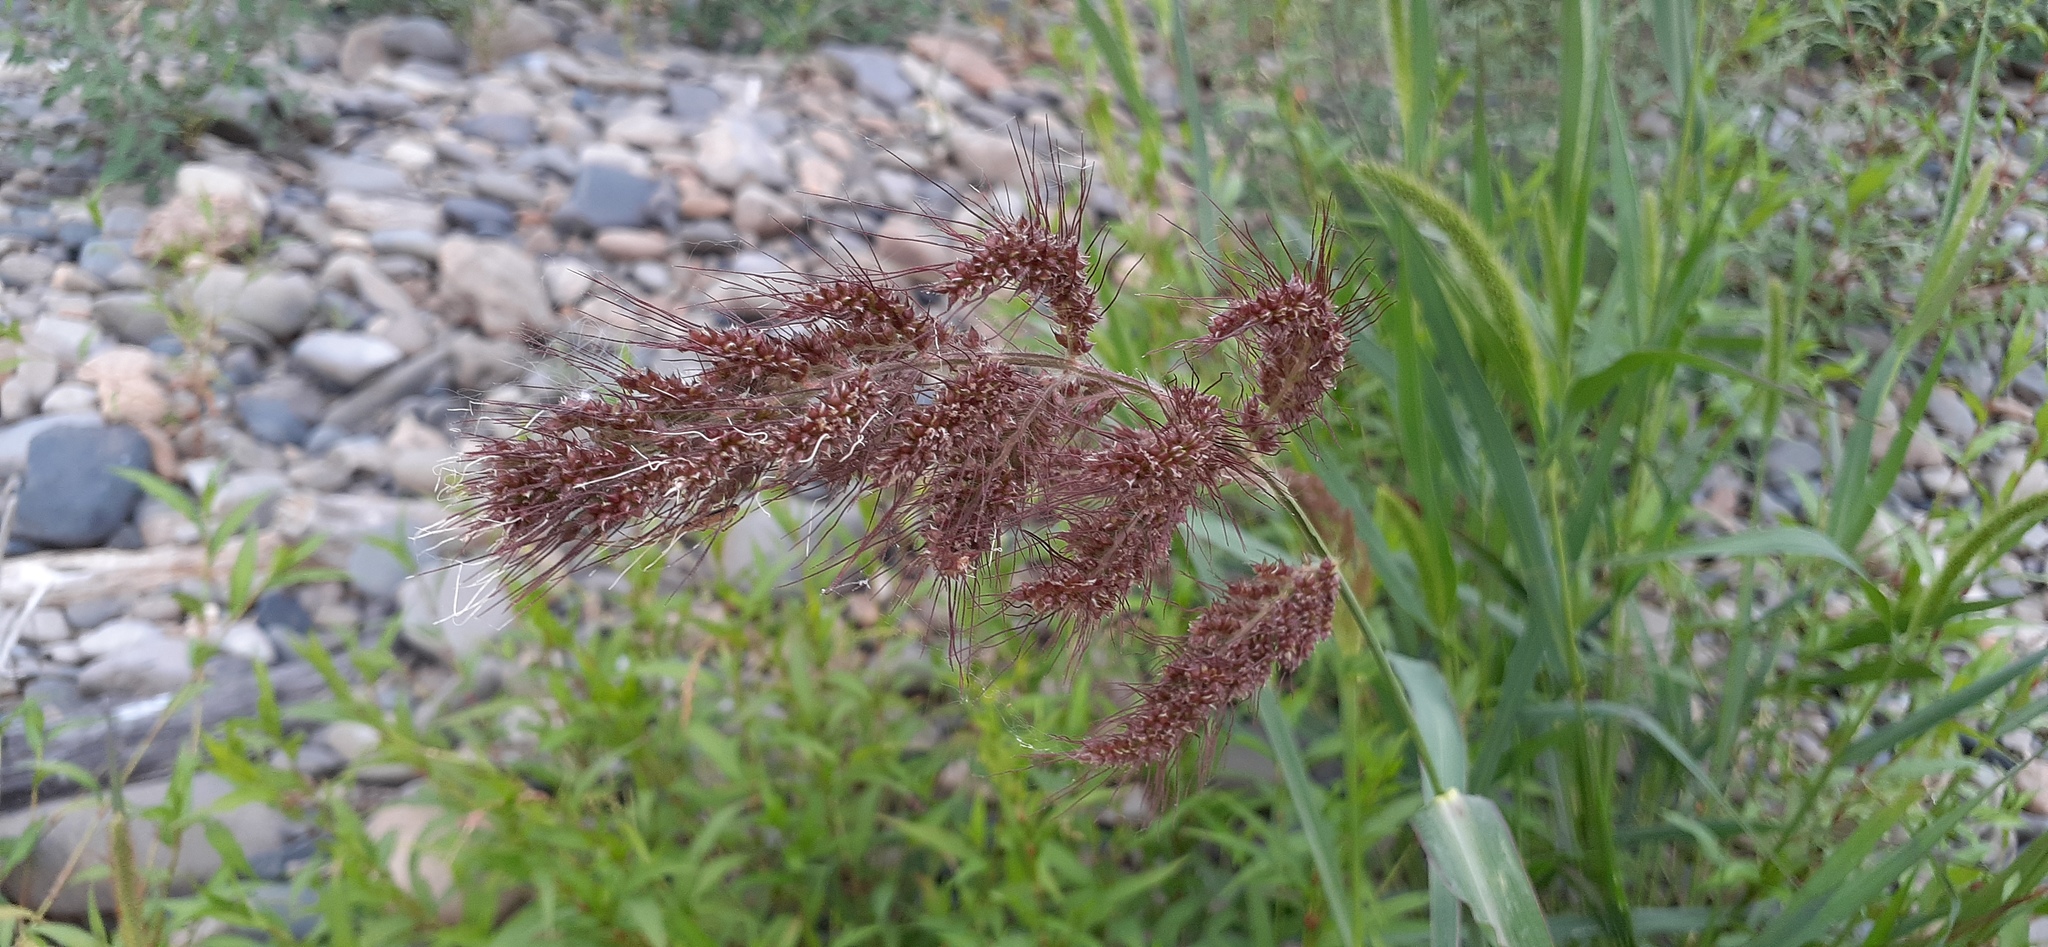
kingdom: Plantae
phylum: Tracheophyta
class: Liliopsida
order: Poales
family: Poaceae
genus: Echinochloa
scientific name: Echinochloa crus-galli
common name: Cockspur
